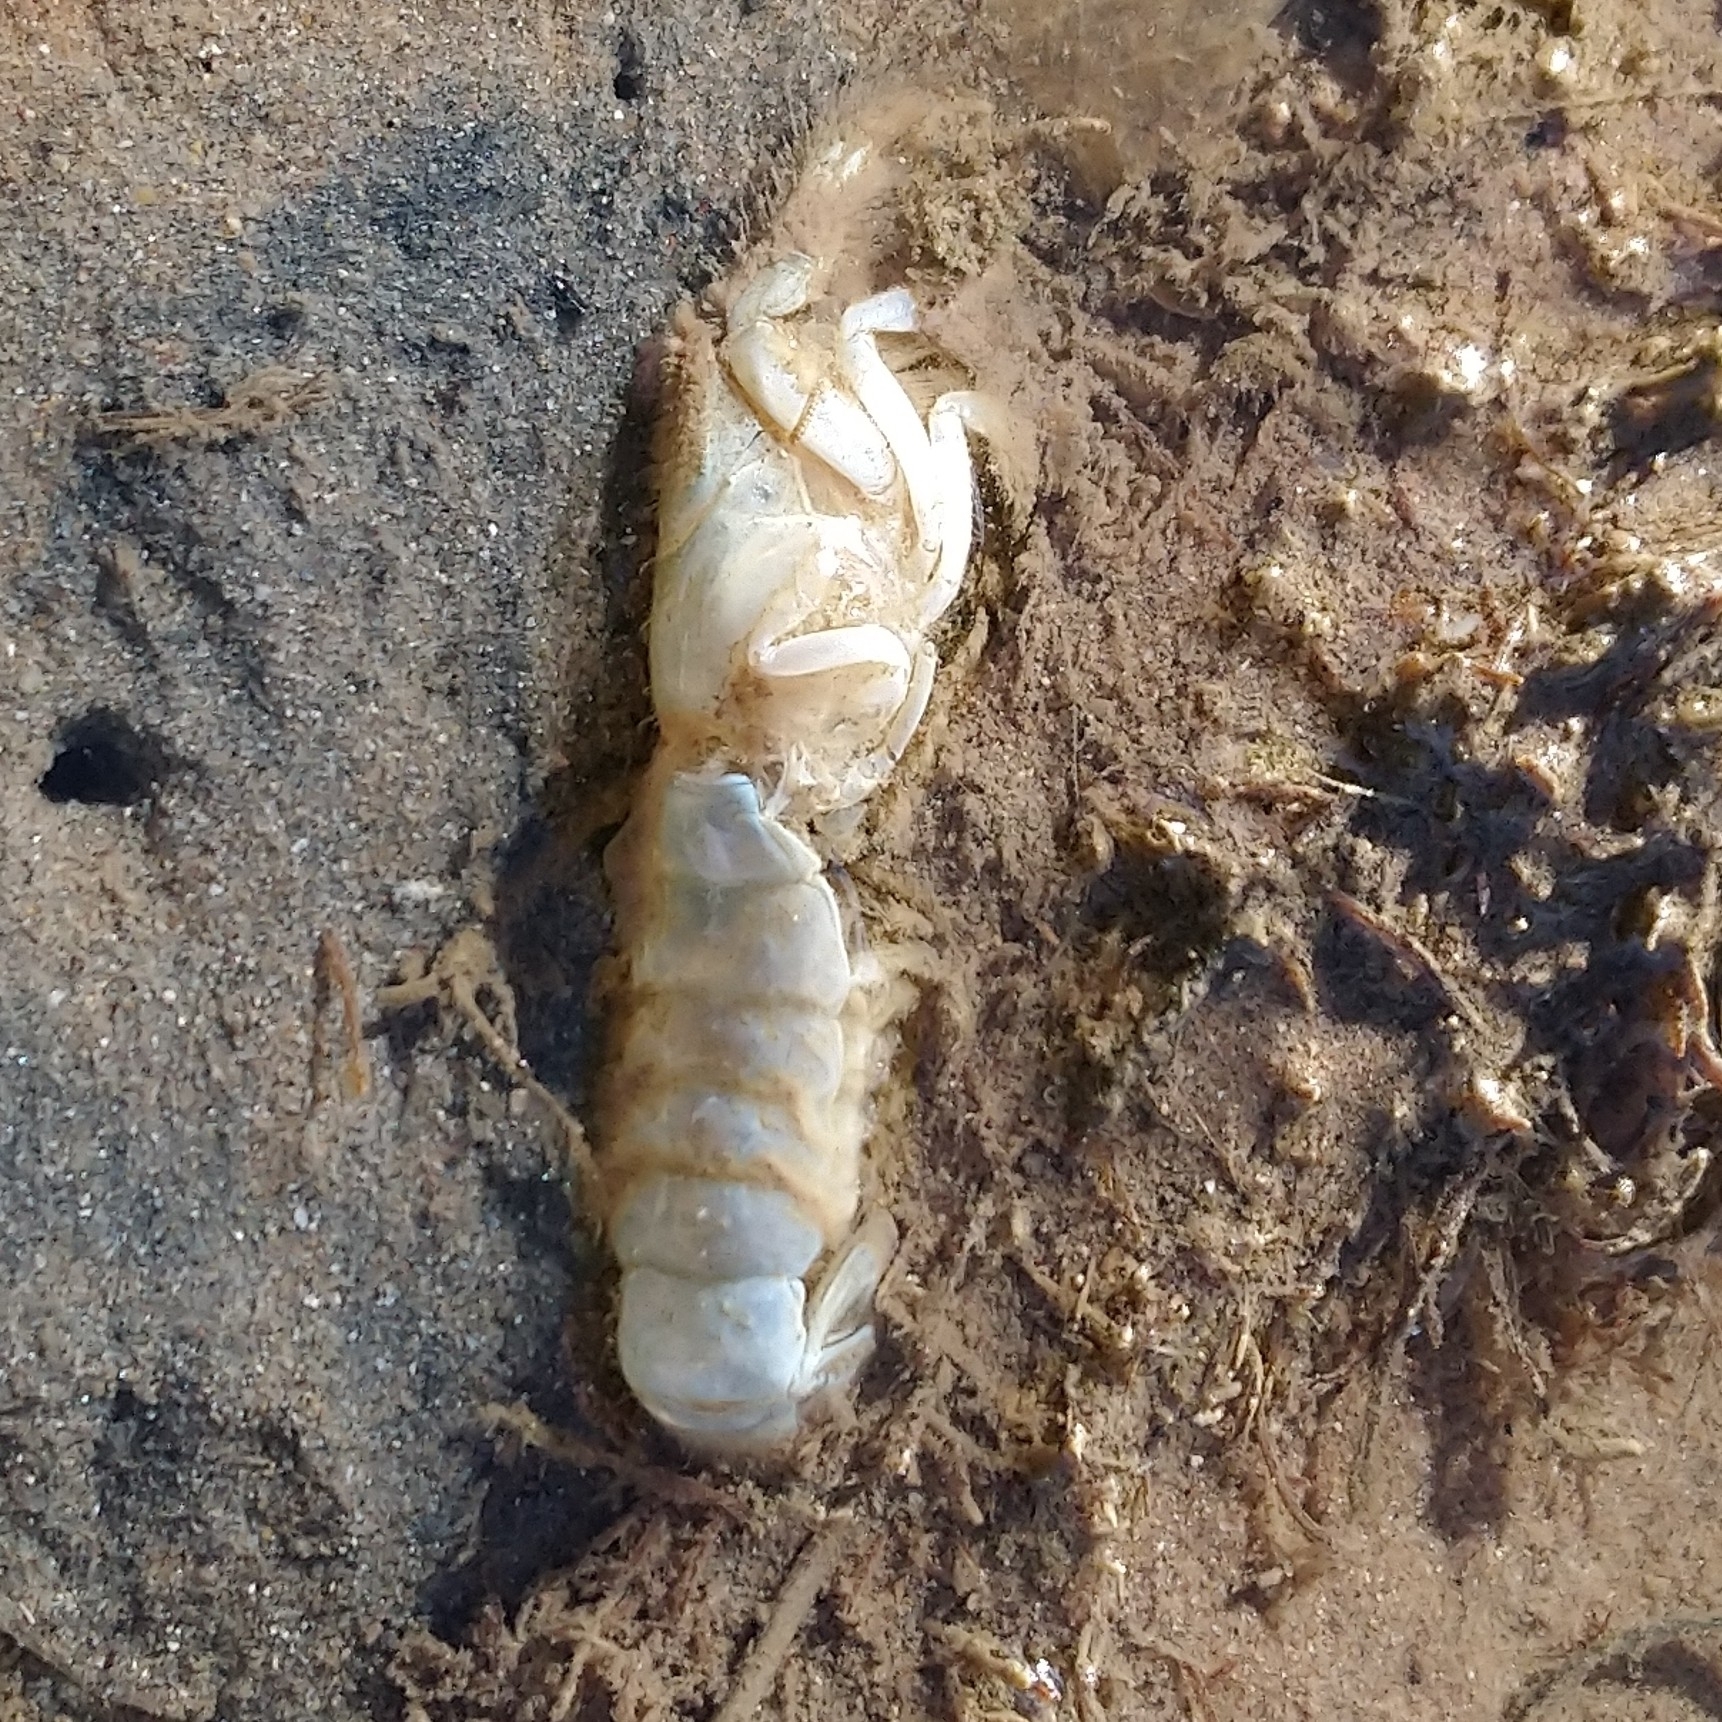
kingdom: Animalia
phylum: Arthropoda
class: Malacostraca
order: Decapoda
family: Upogebiidae
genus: Upogebia
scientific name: Upogebia africana
